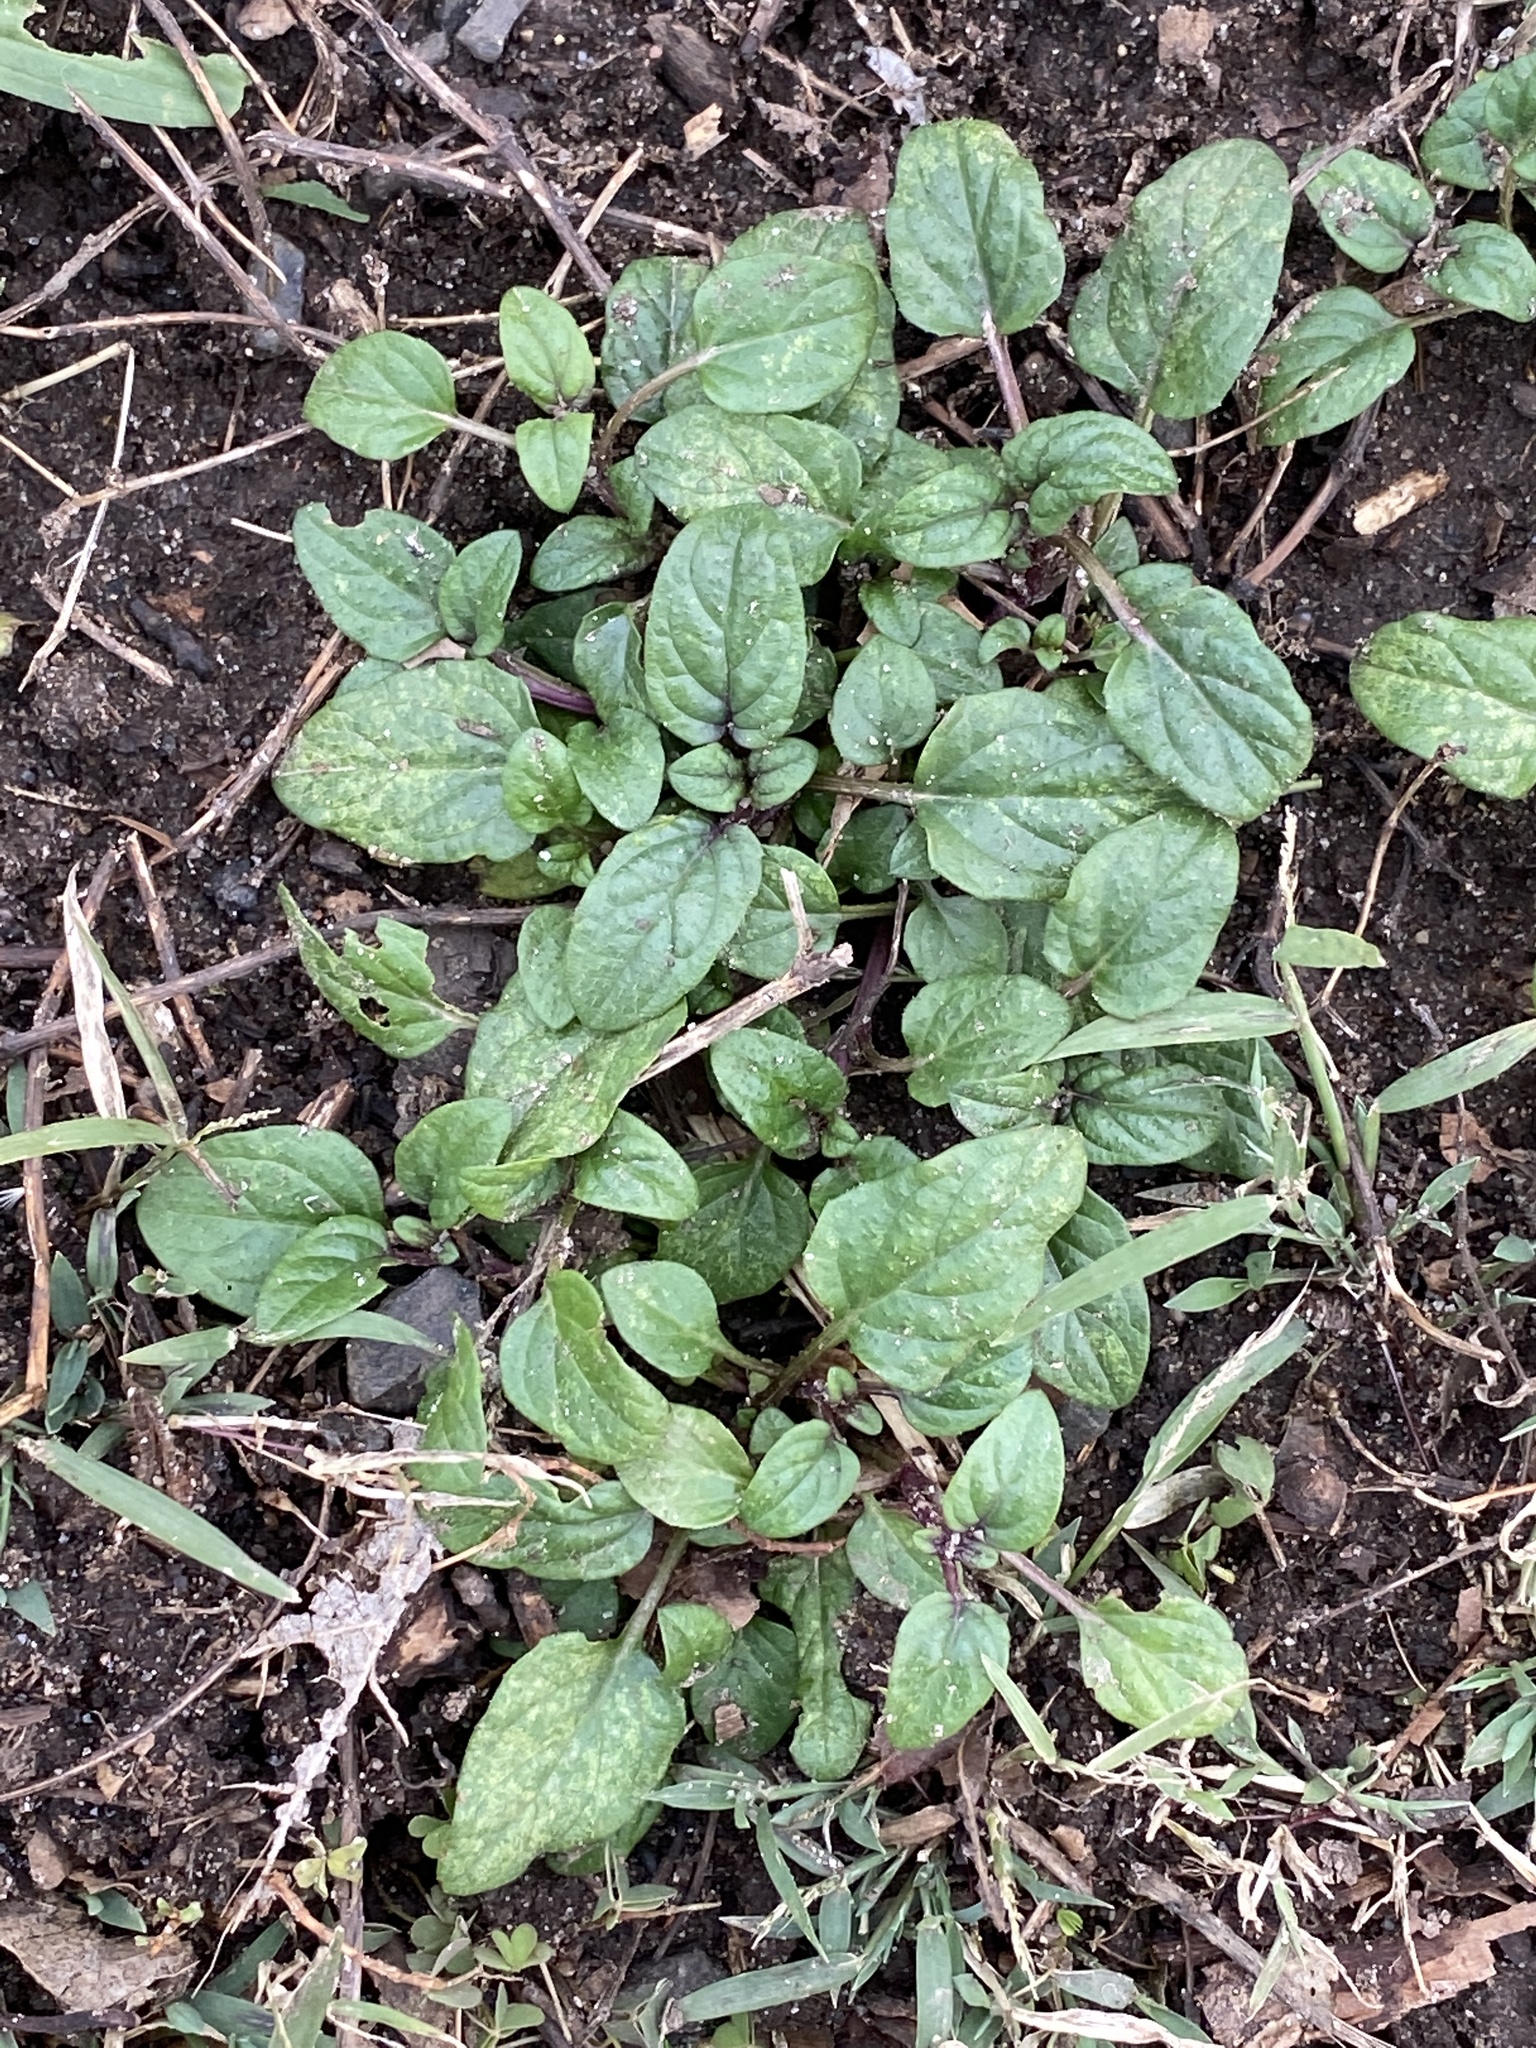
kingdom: Plantae
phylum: Tracheophyta
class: Magnoliopsida
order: Lamiales
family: Lamiaceae
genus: Prunella
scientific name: Prunella vulgaris
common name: Heal-all
